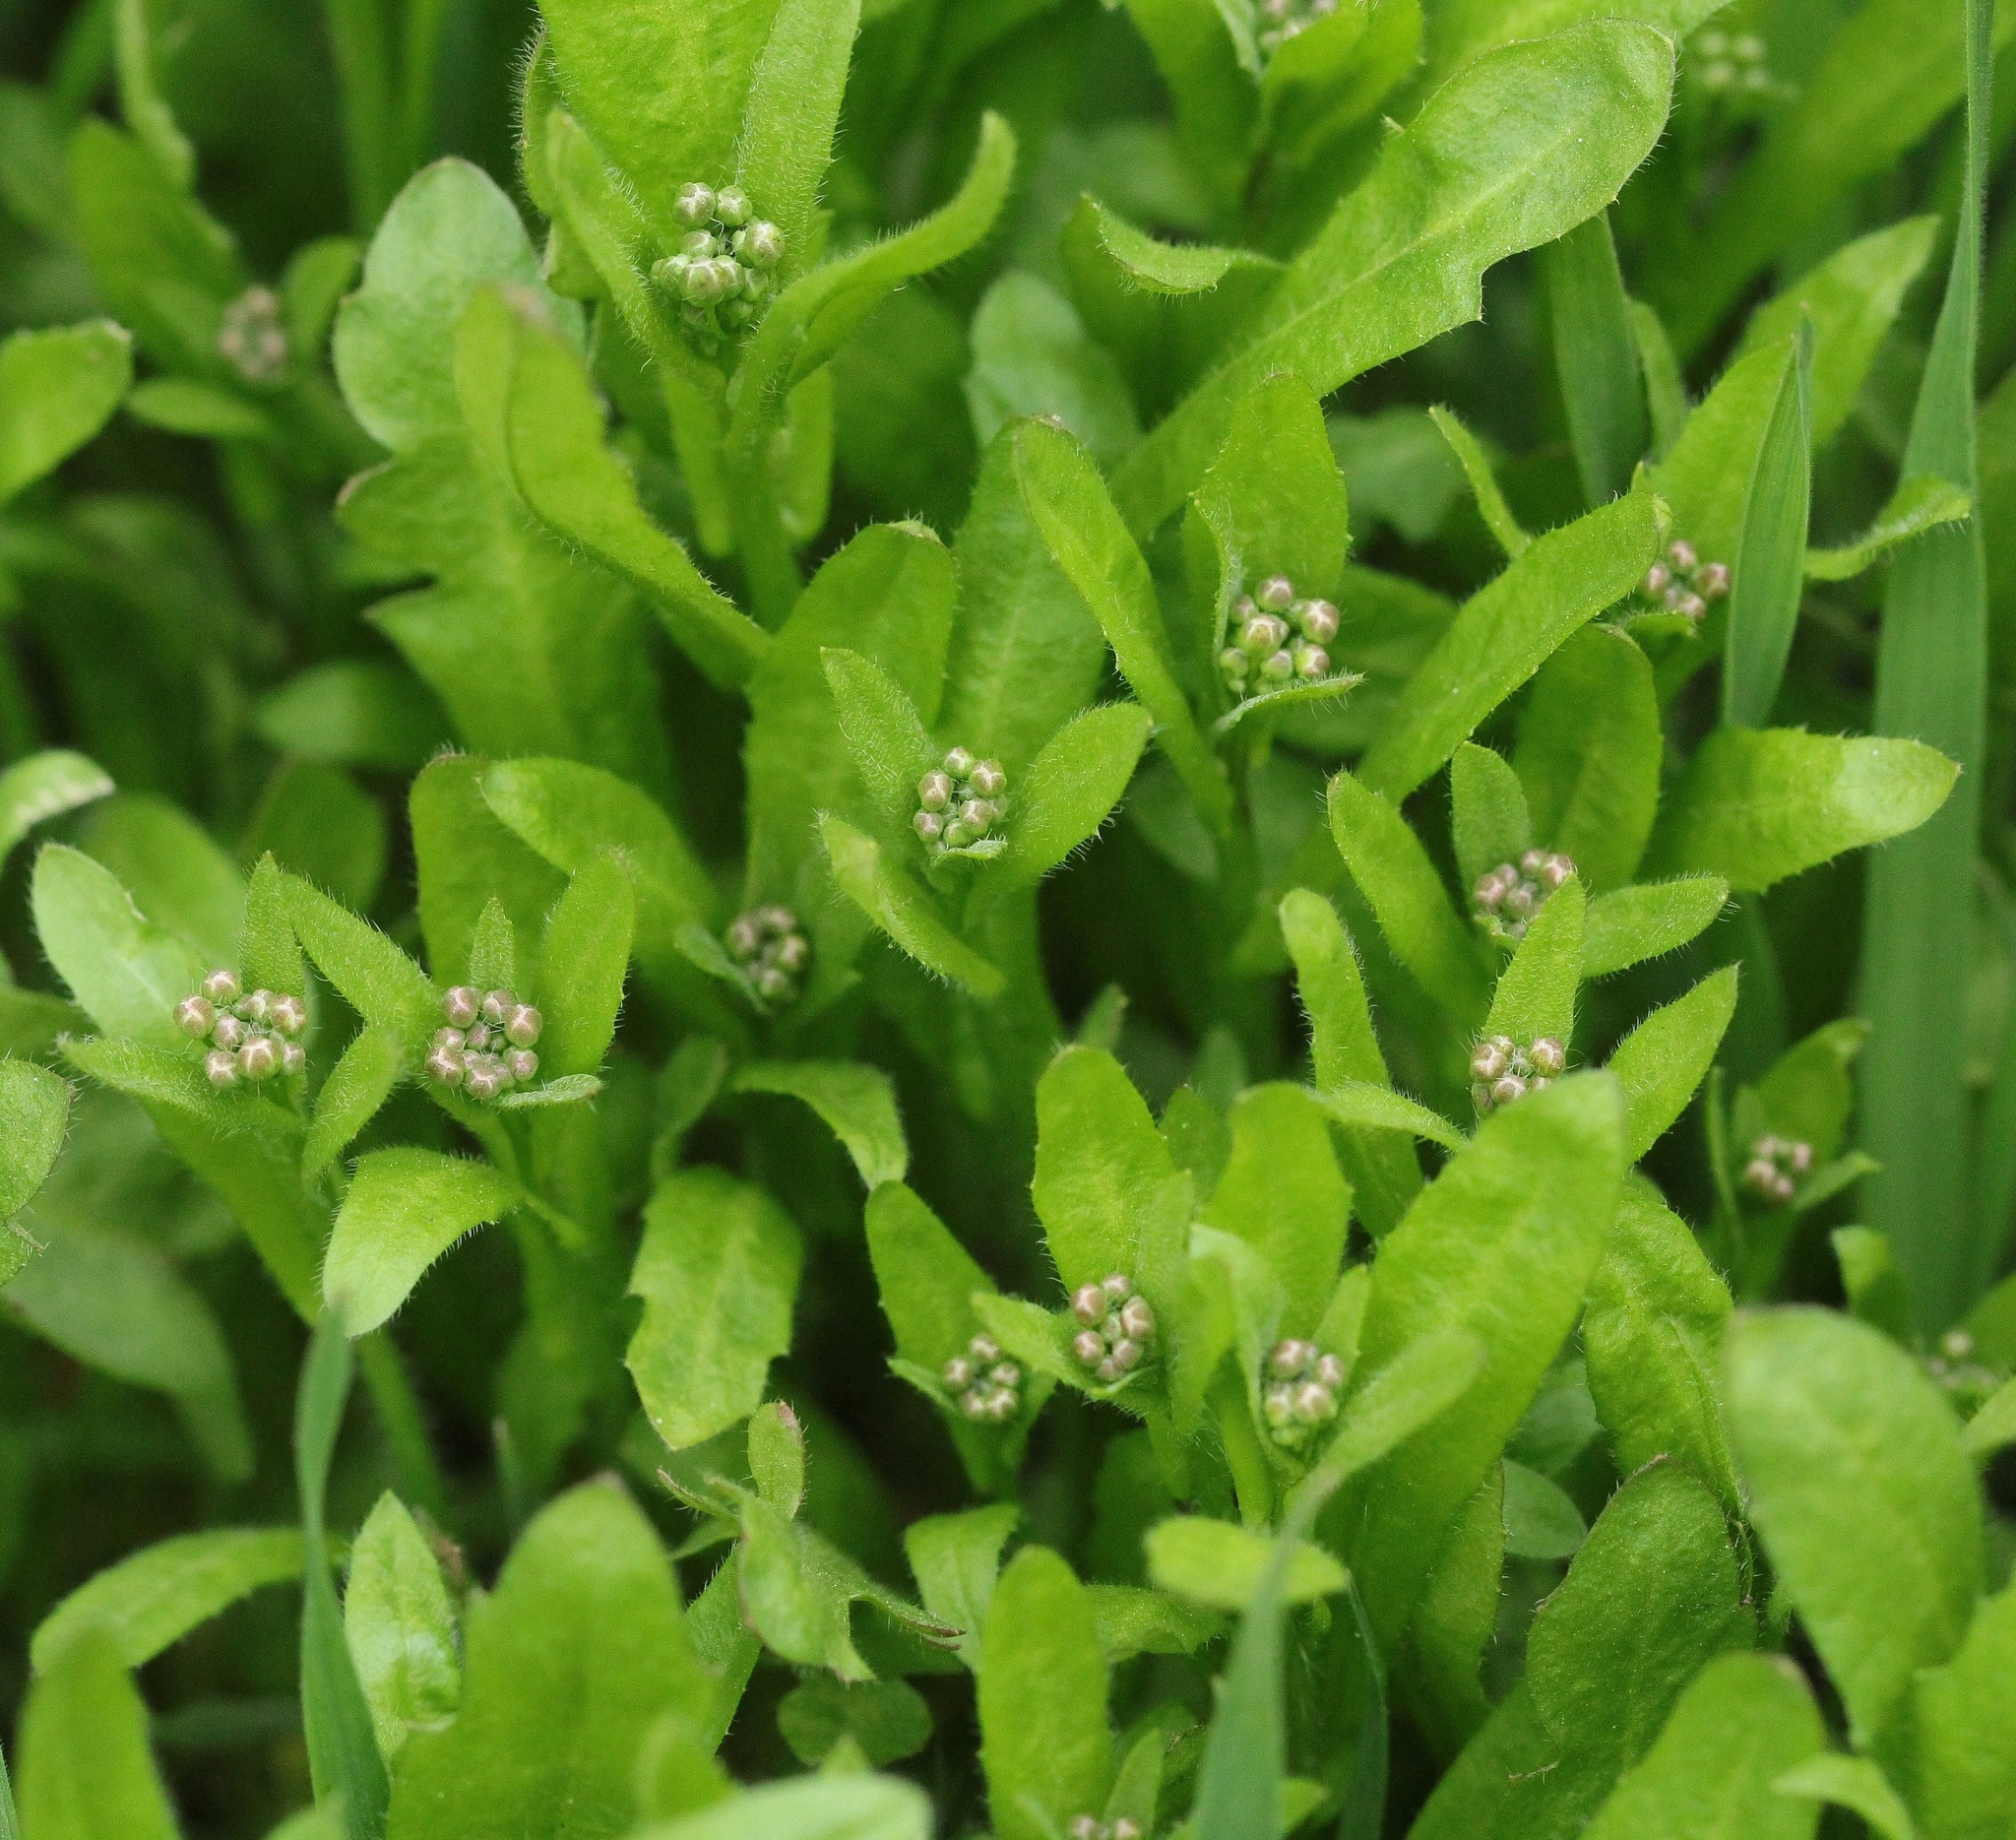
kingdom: Plantae
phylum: Tracheophyta
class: Magnoliopsida
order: Brassicales
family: Brassicaceae
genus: Capsella
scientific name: Capsella bursa-pastoris
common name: Shepherd's purse
